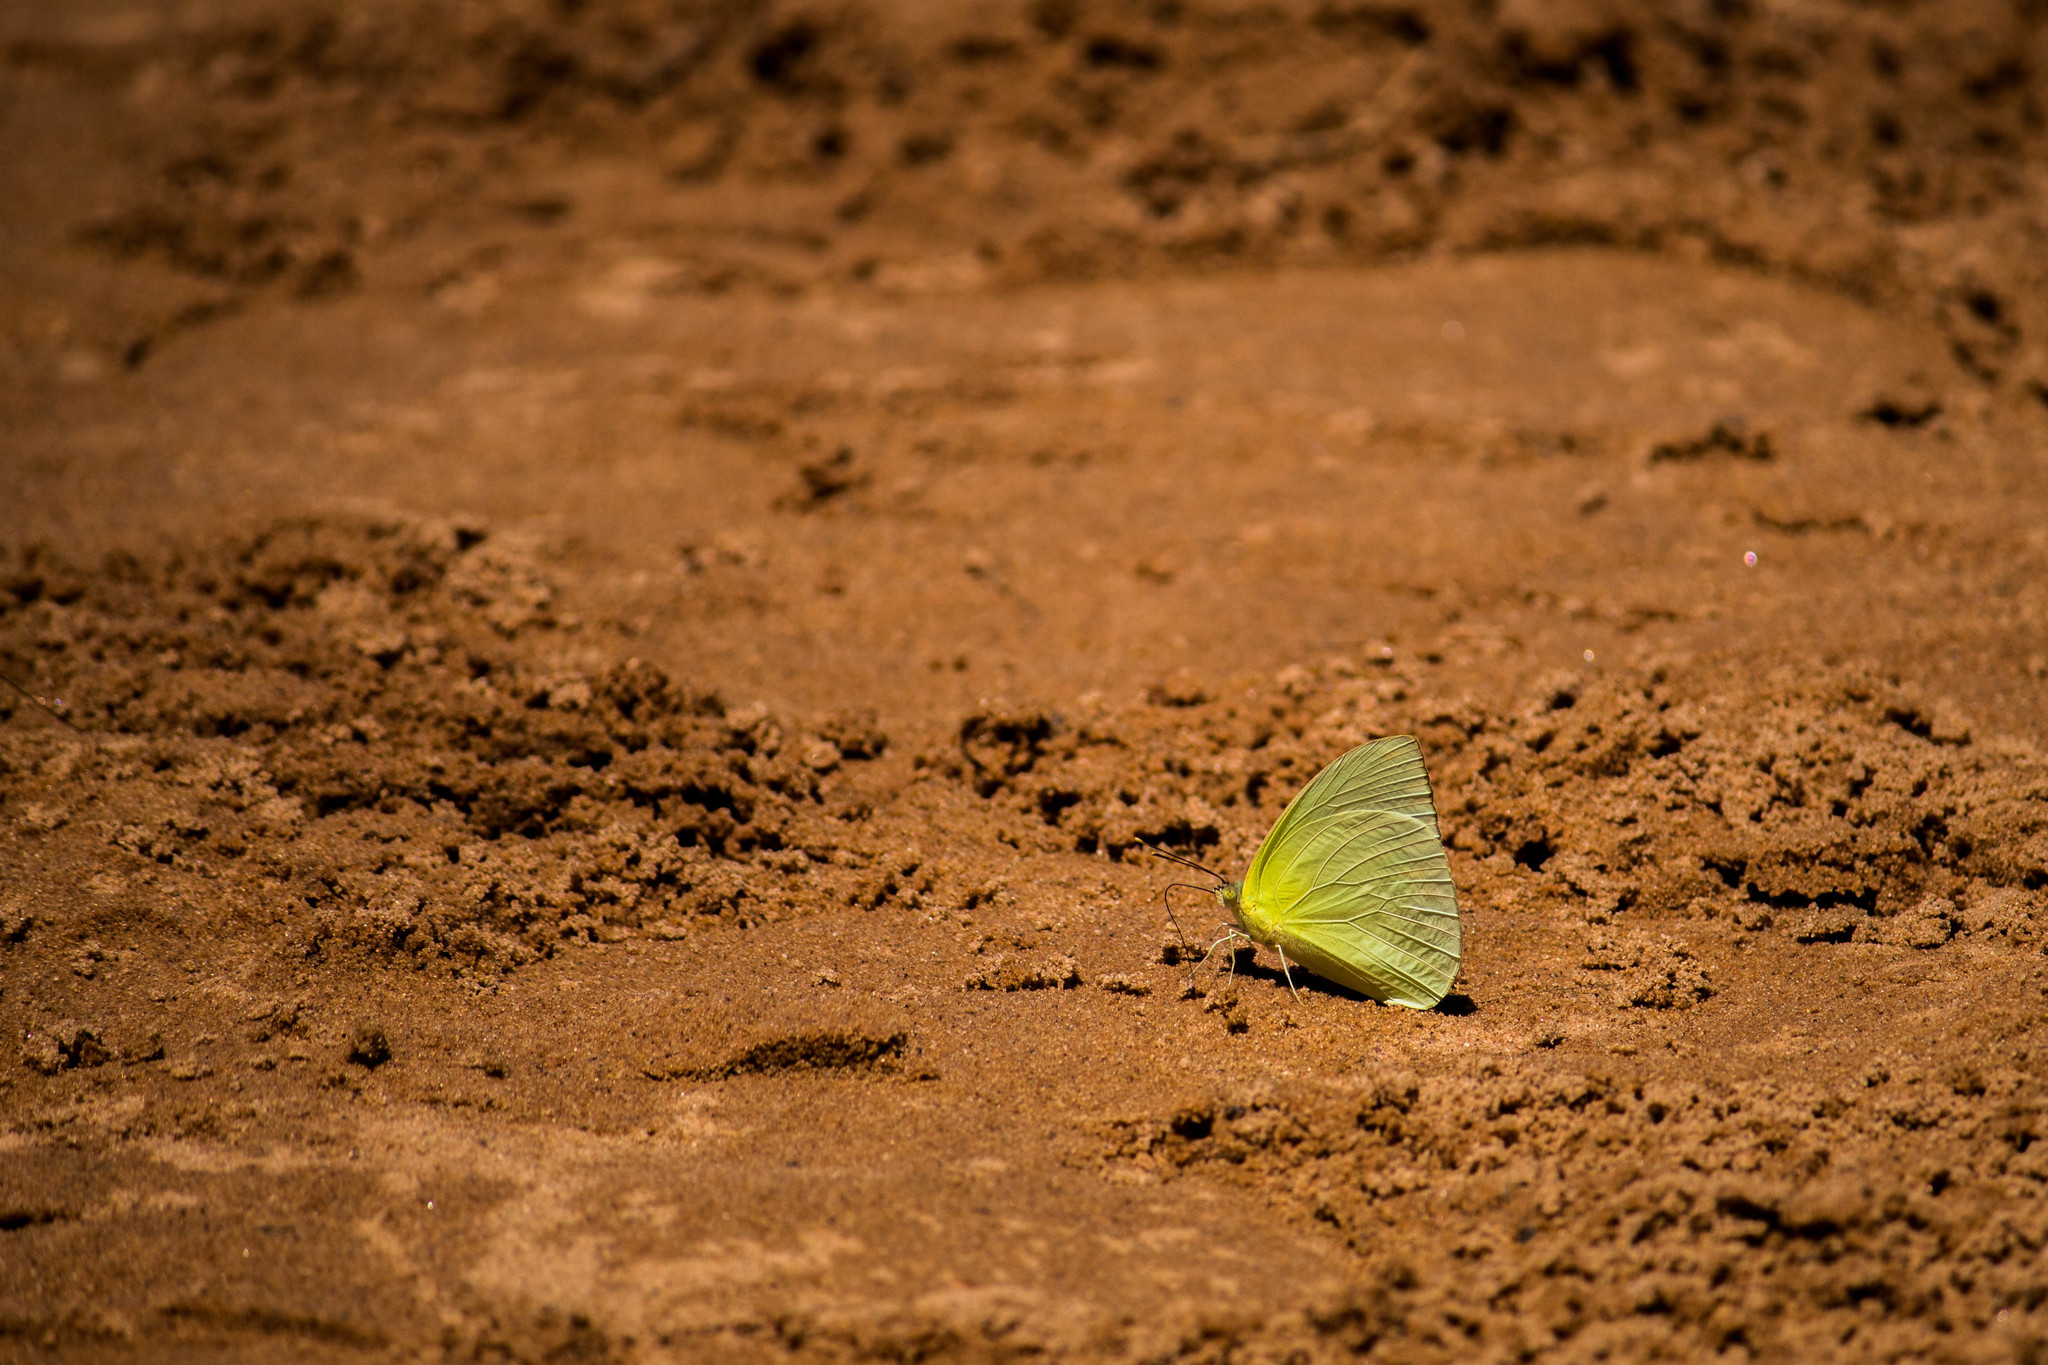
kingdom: Animalia
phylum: Arthropoda
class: Insecta
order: Lepidoptera
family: Pieridae
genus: Aphrissa
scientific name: Aphrissa statira
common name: Statira sulphur
